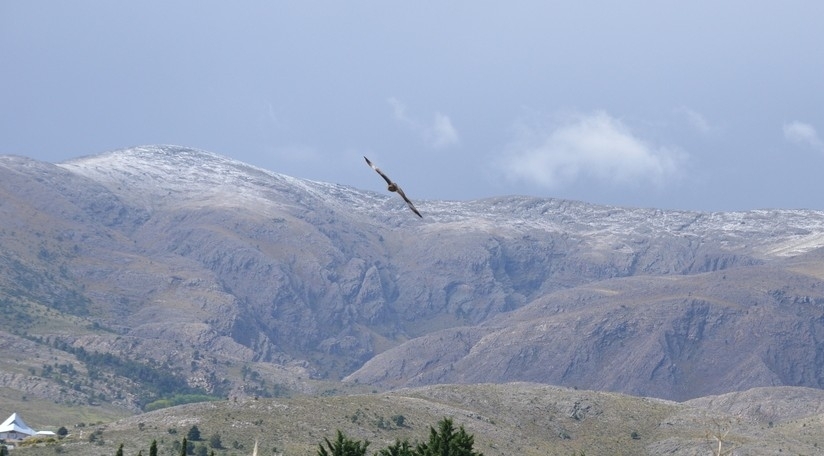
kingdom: Animalia
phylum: Chordata
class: Aves
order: Falconiformes
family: Falconidae
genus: Daptrius
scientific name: Daptrius
